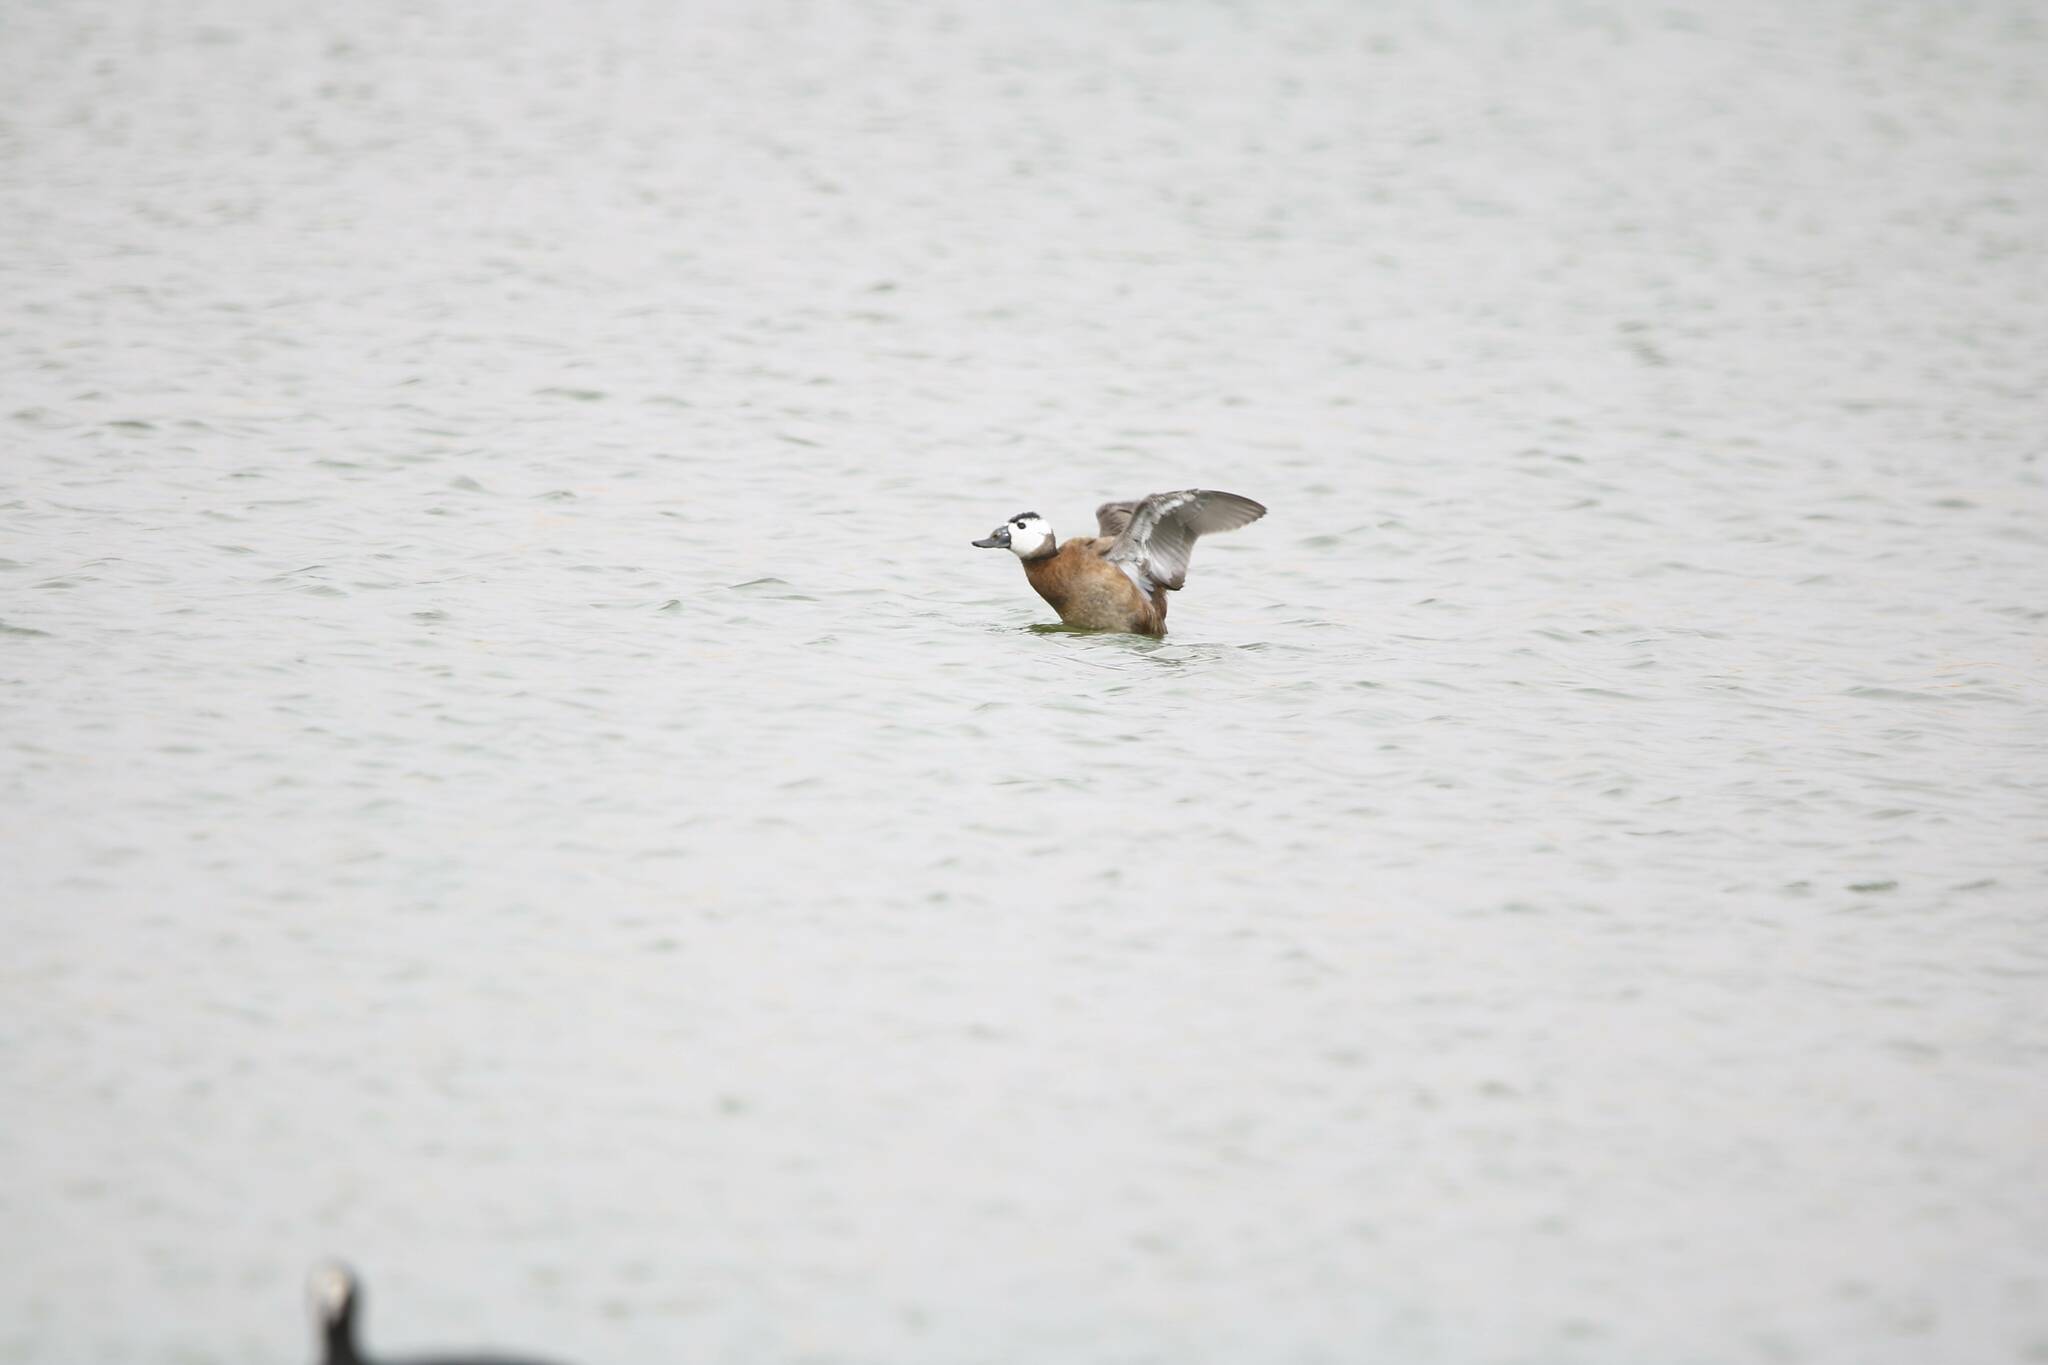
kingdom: Animalia
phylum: Chordata
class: Aves
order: Anseriformes
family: Anatidae
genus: Oxyura
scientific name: Oxyura leucocephala
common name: White-headed duck
